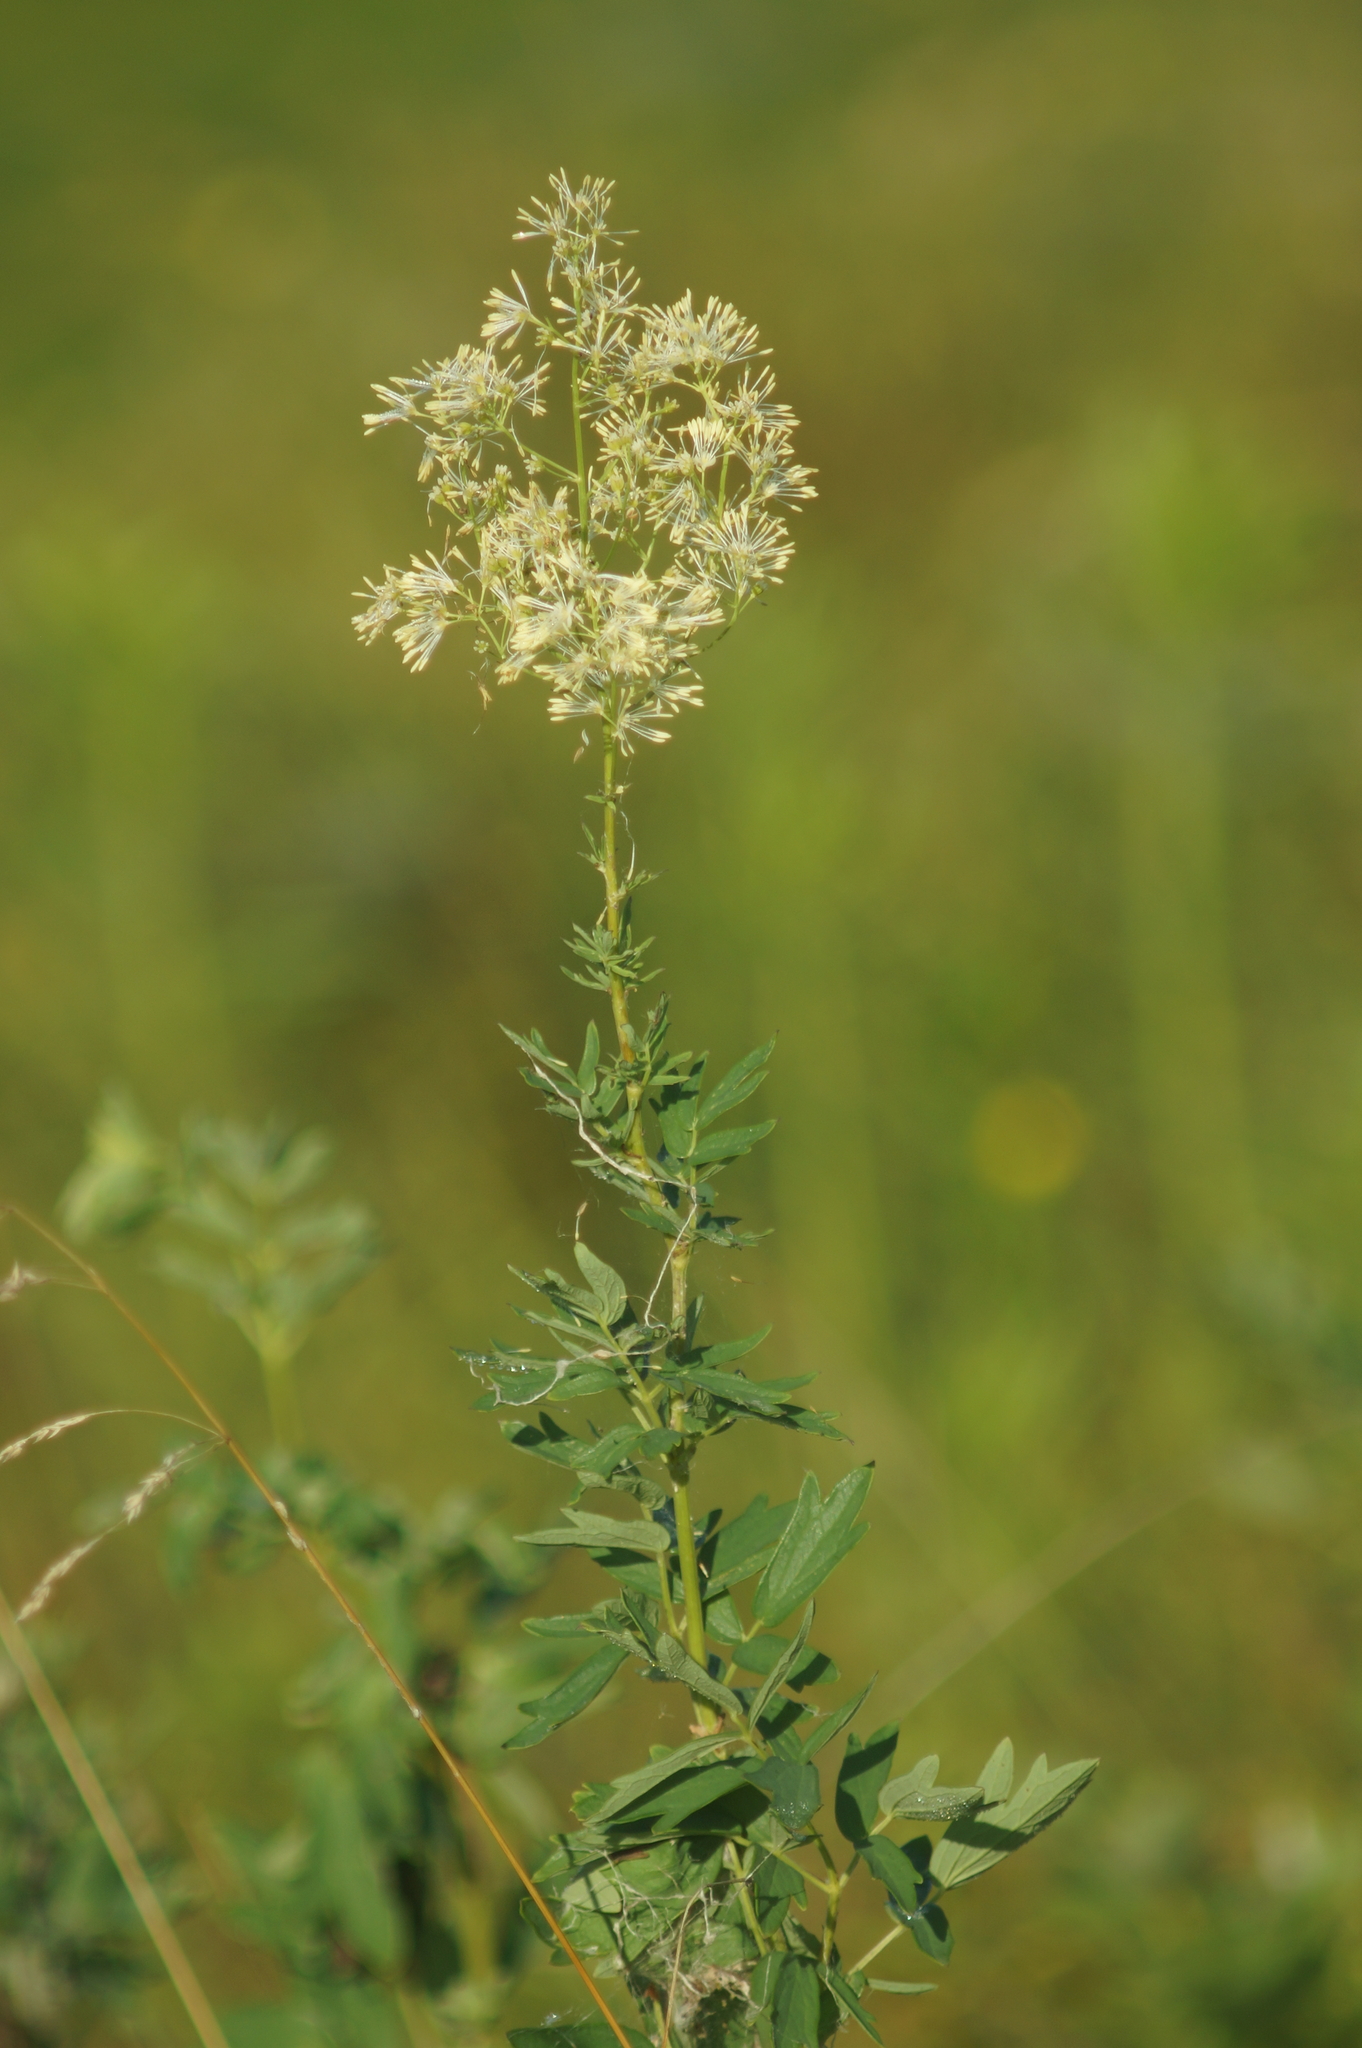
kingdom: Plantae
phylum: Tracheophyta
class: Magnoliopsida
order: Ranunculales
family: Ranunculaceae
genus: Thalictrum
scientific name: Thalictrum flavum
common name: Common meadow-rue
